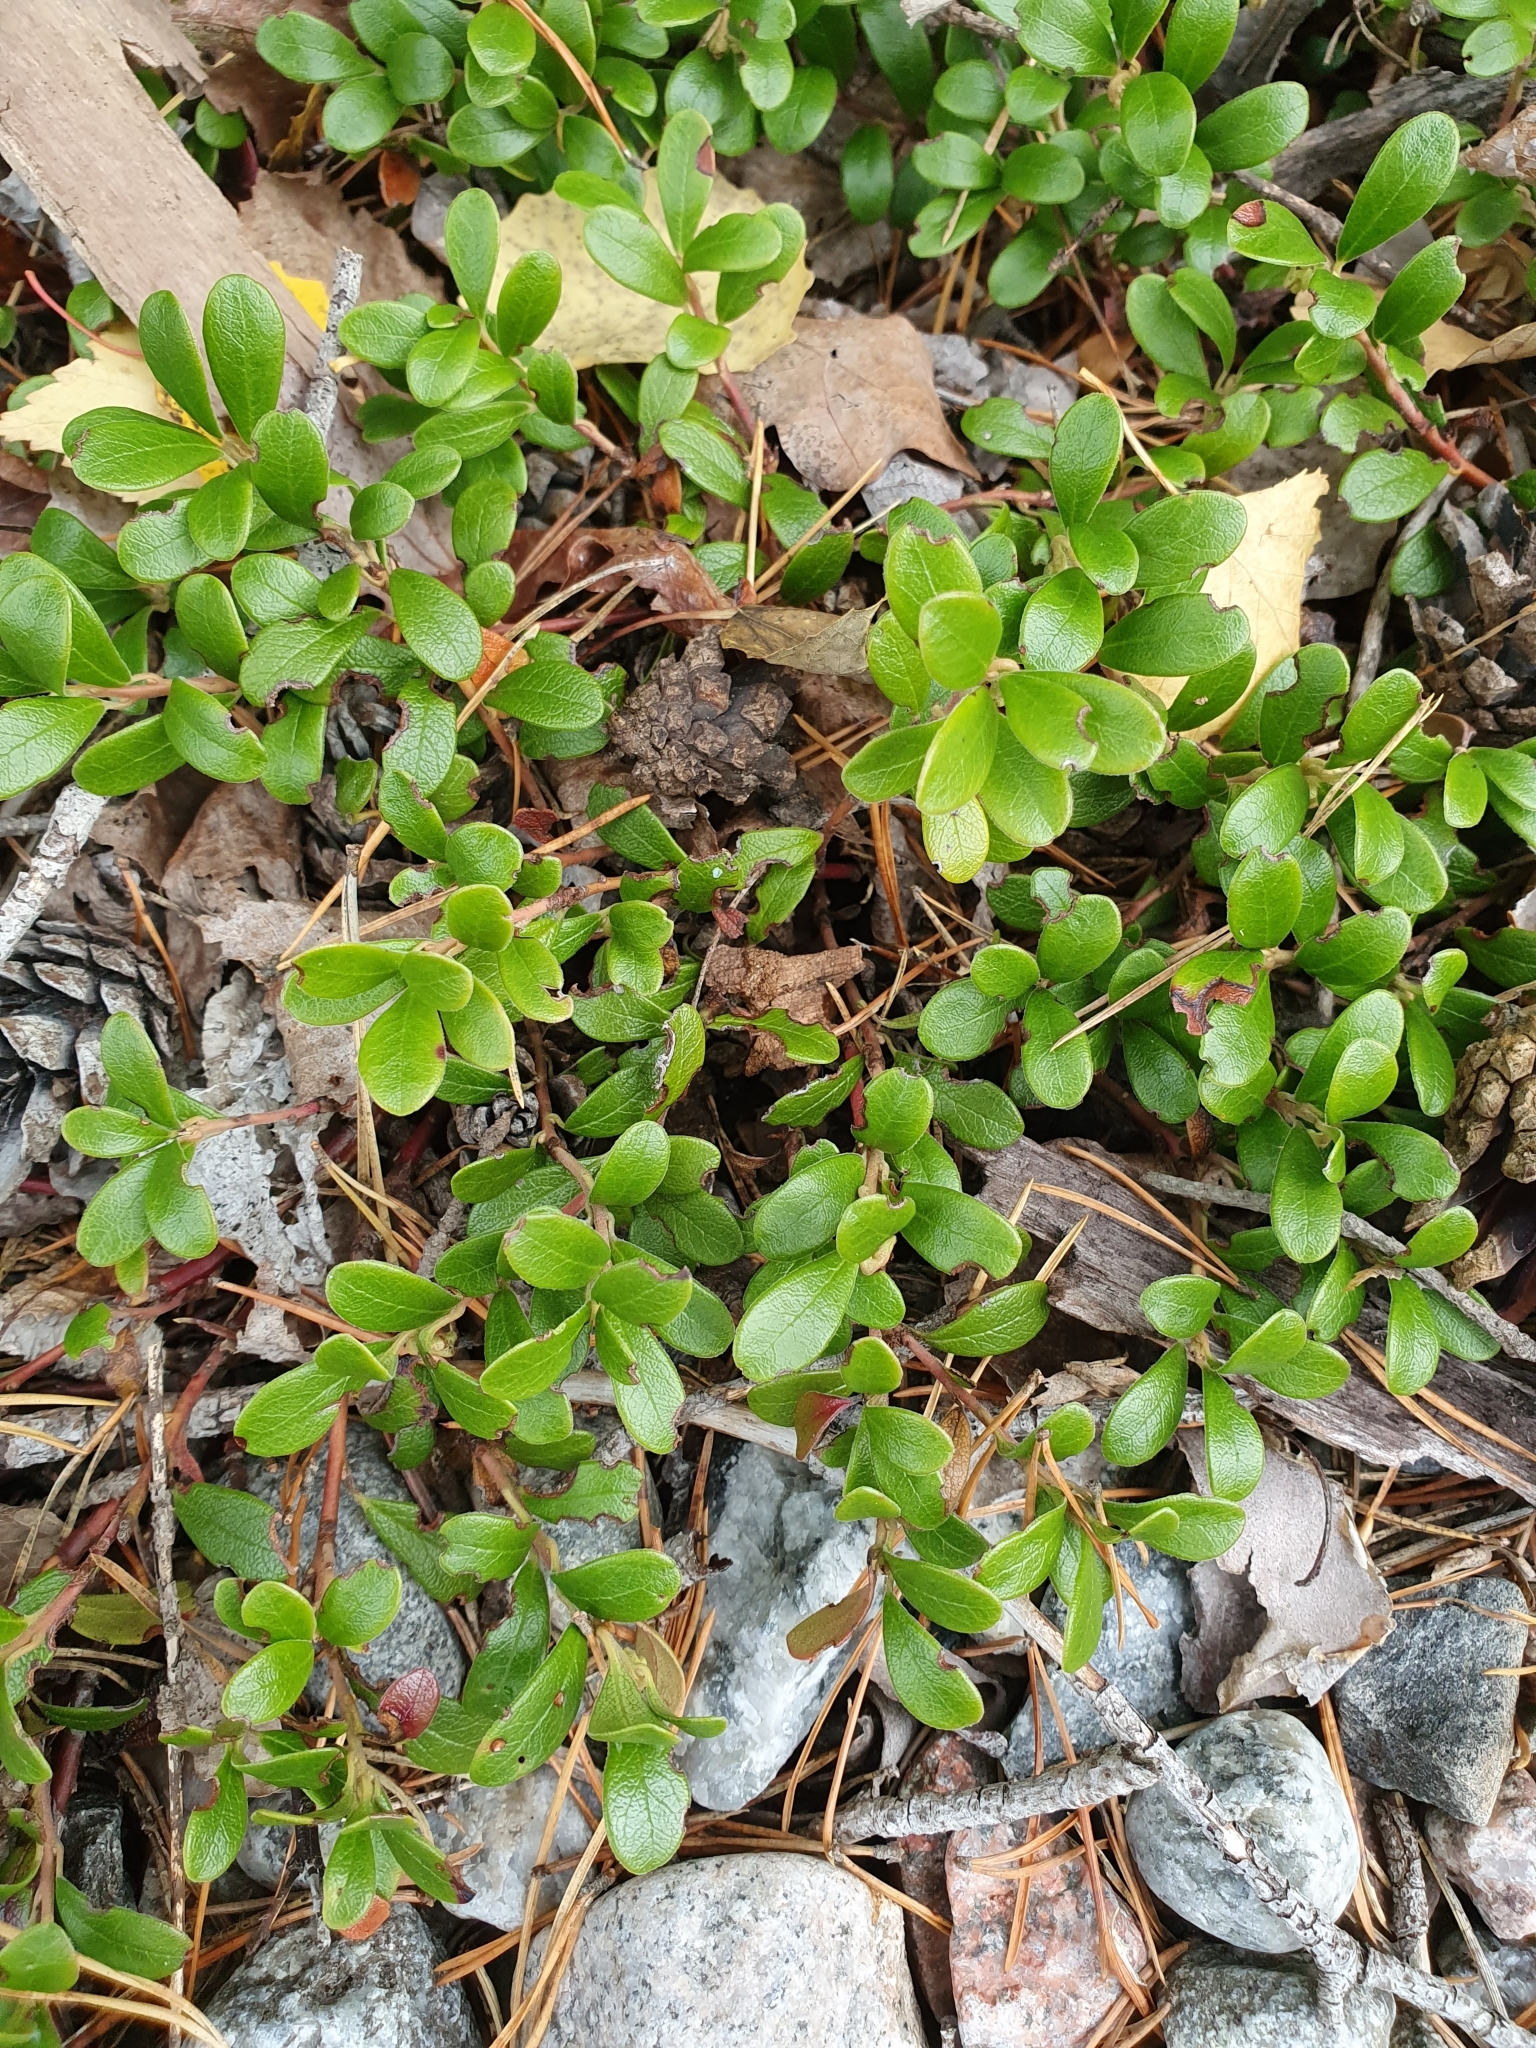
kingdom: Plantae
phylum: Tracheophyta
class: Magnoliopsida
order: Ericales
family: Ericaceae
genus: Arctostaphylos
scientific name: Arctostaphylos uva-ursi
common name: Bearberry
